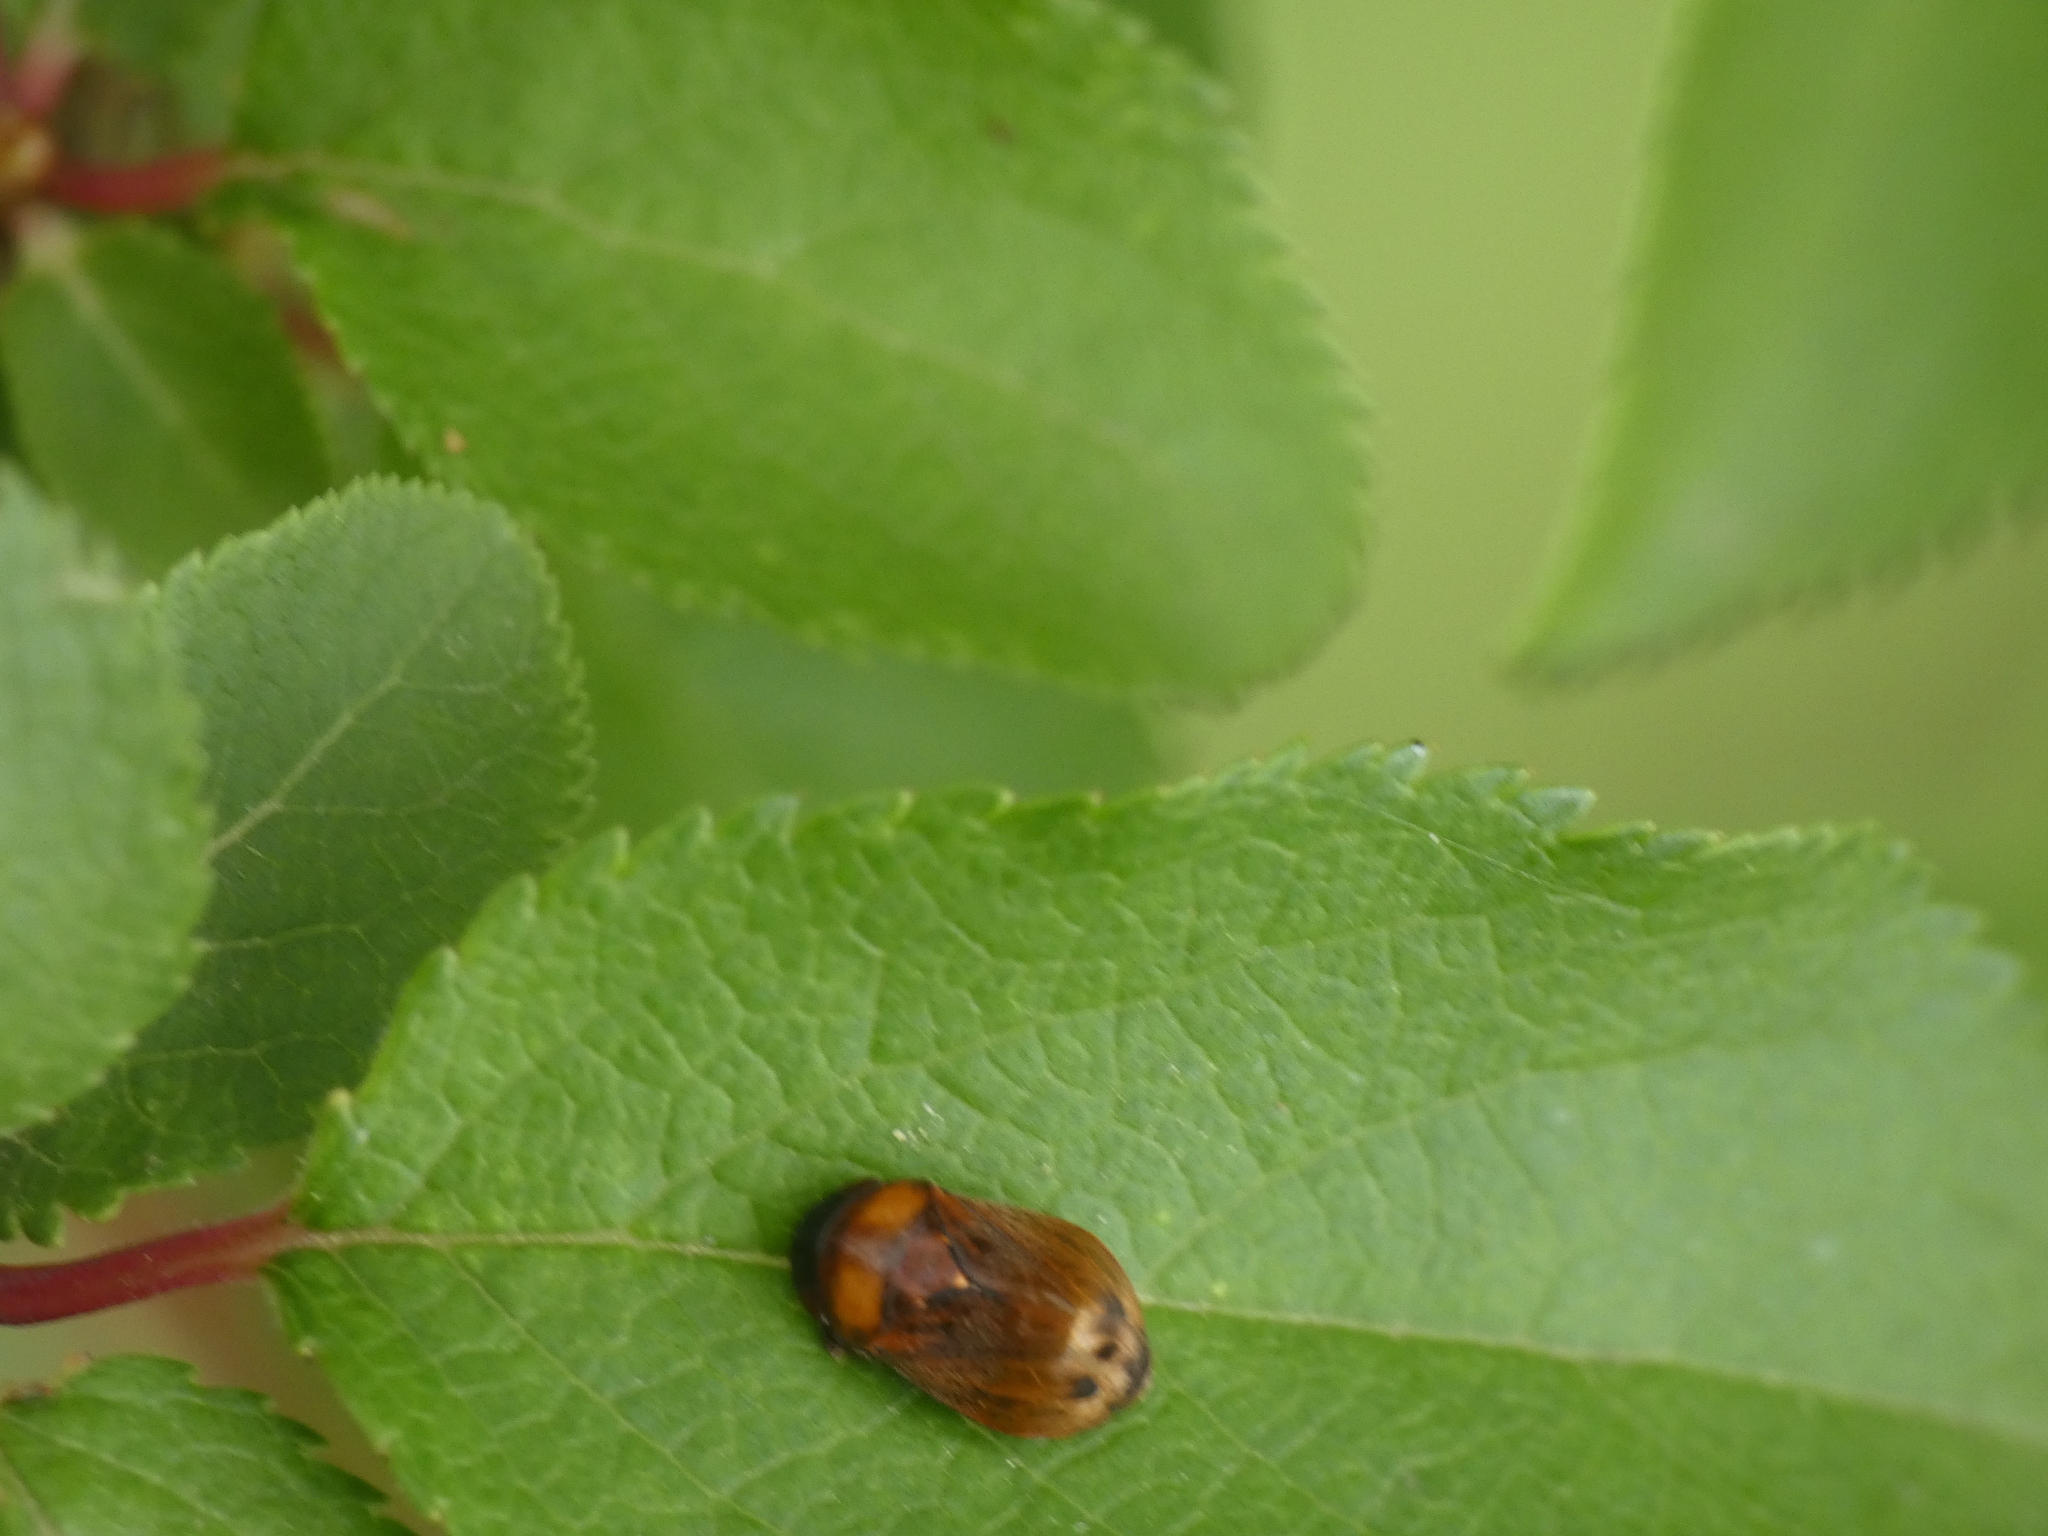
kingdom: Animalia
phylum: Arthropoda
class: Insecta
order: Hemiptera
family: Cicadellidae
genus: Penthimia
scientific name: Penthimia nigra
